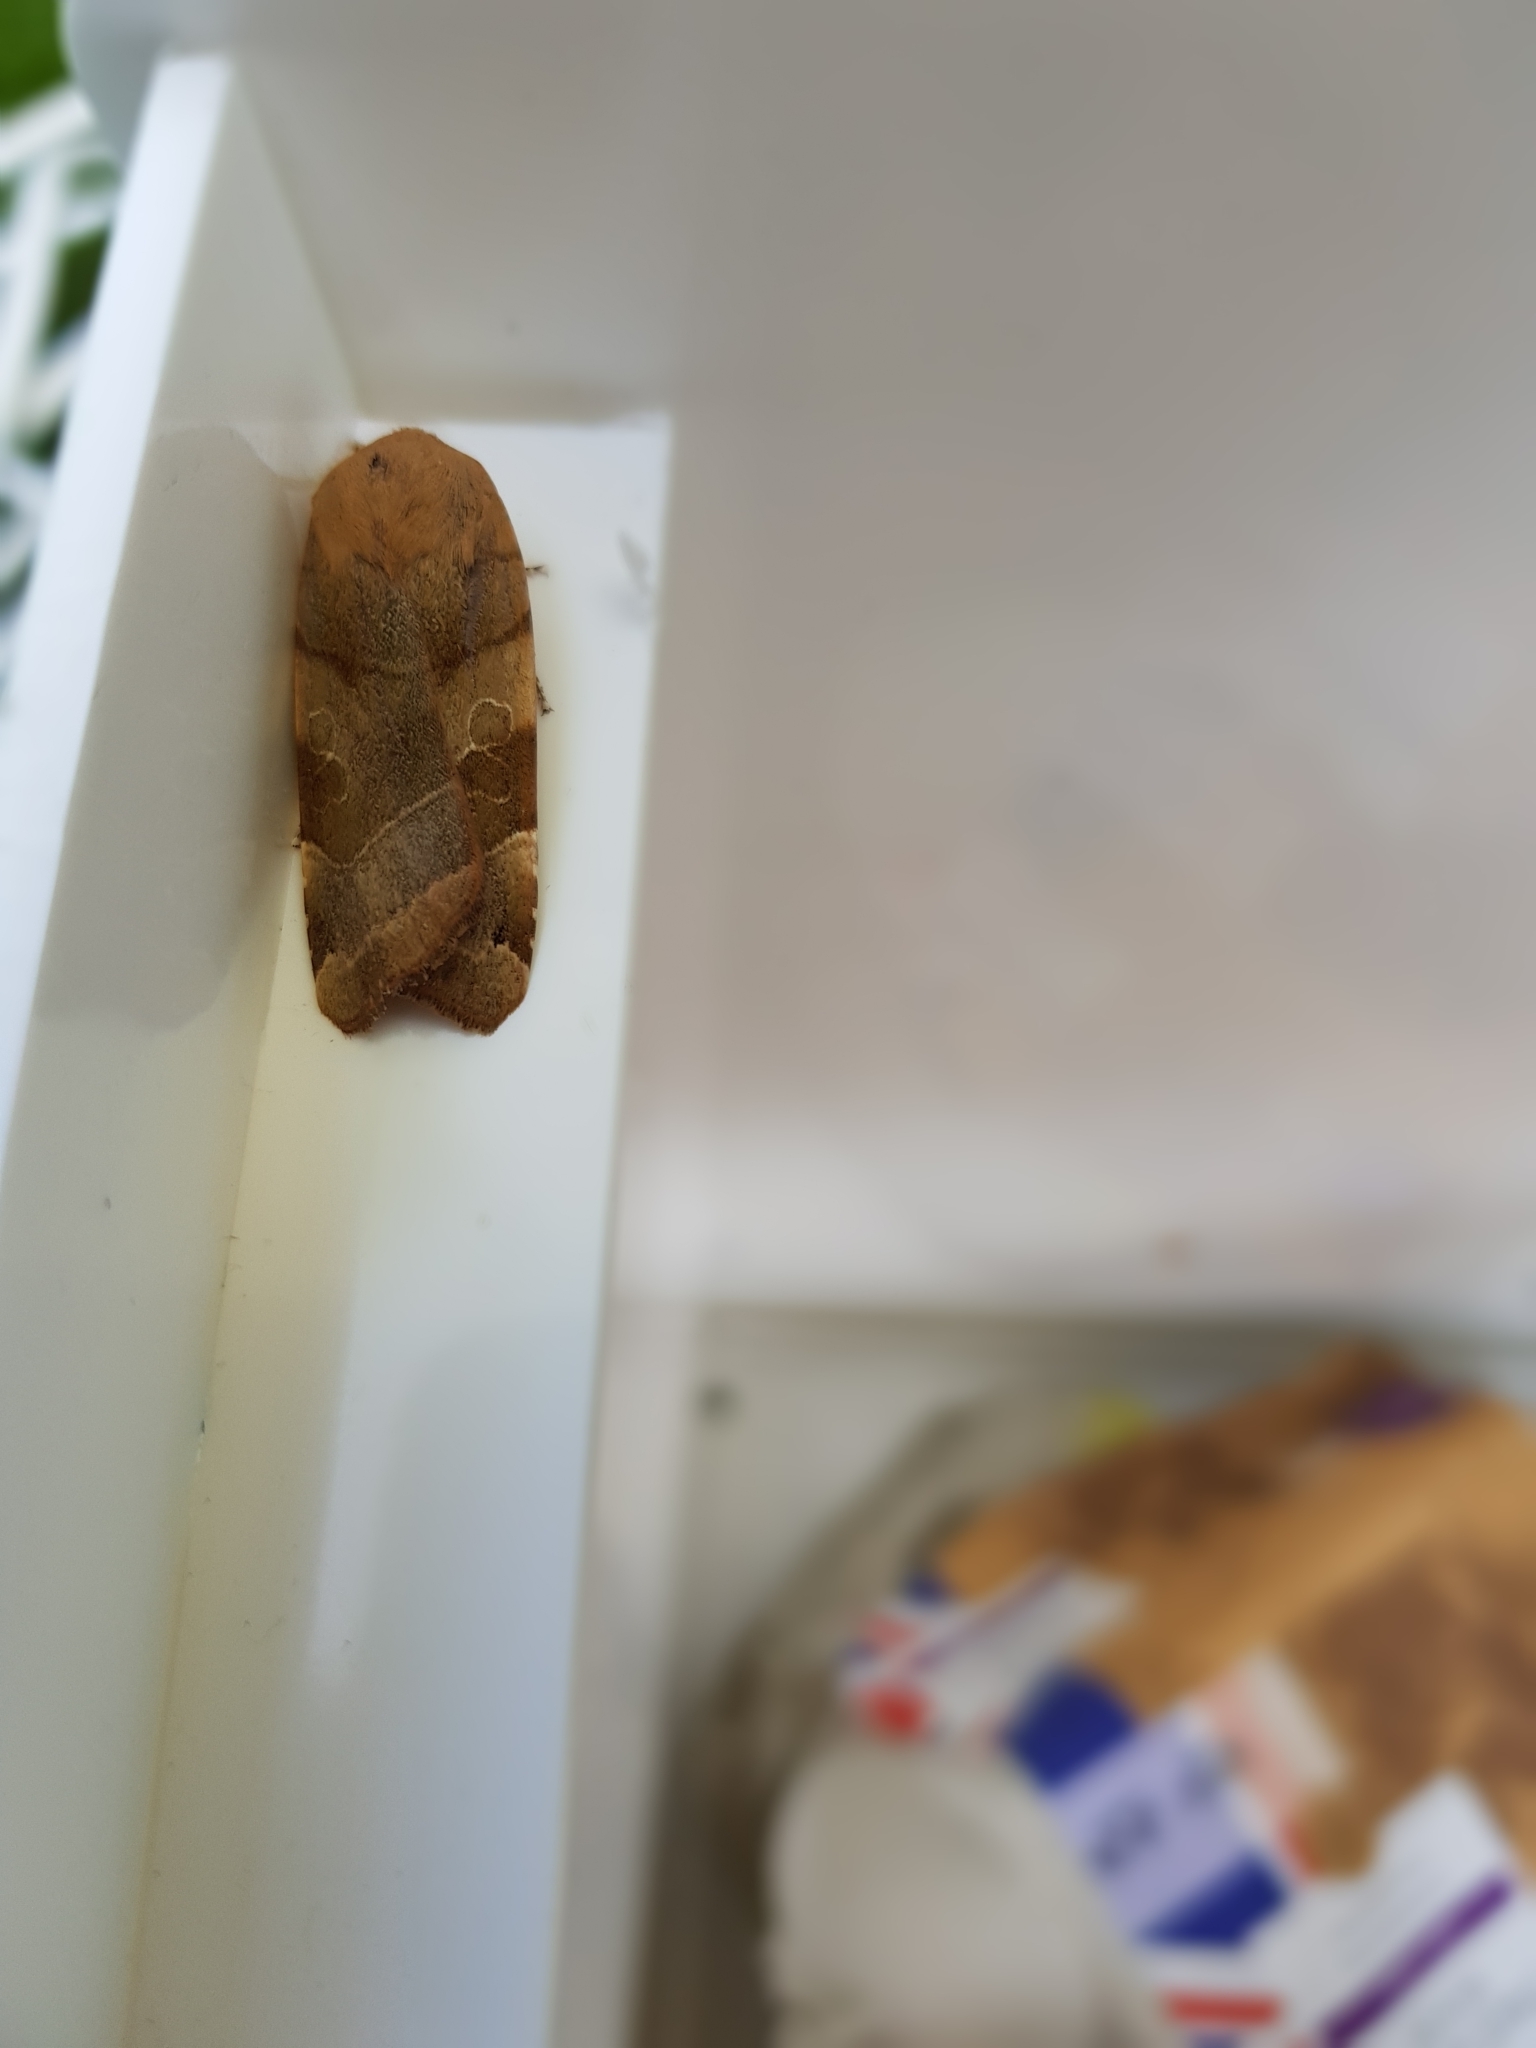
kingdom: Animalia
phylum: Arthropoda
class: Insecta
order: Lepidoptera
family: Noctuidae
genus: Noctua
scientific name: Noctua fimbriata
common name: Broad-bordered yellow underwing
